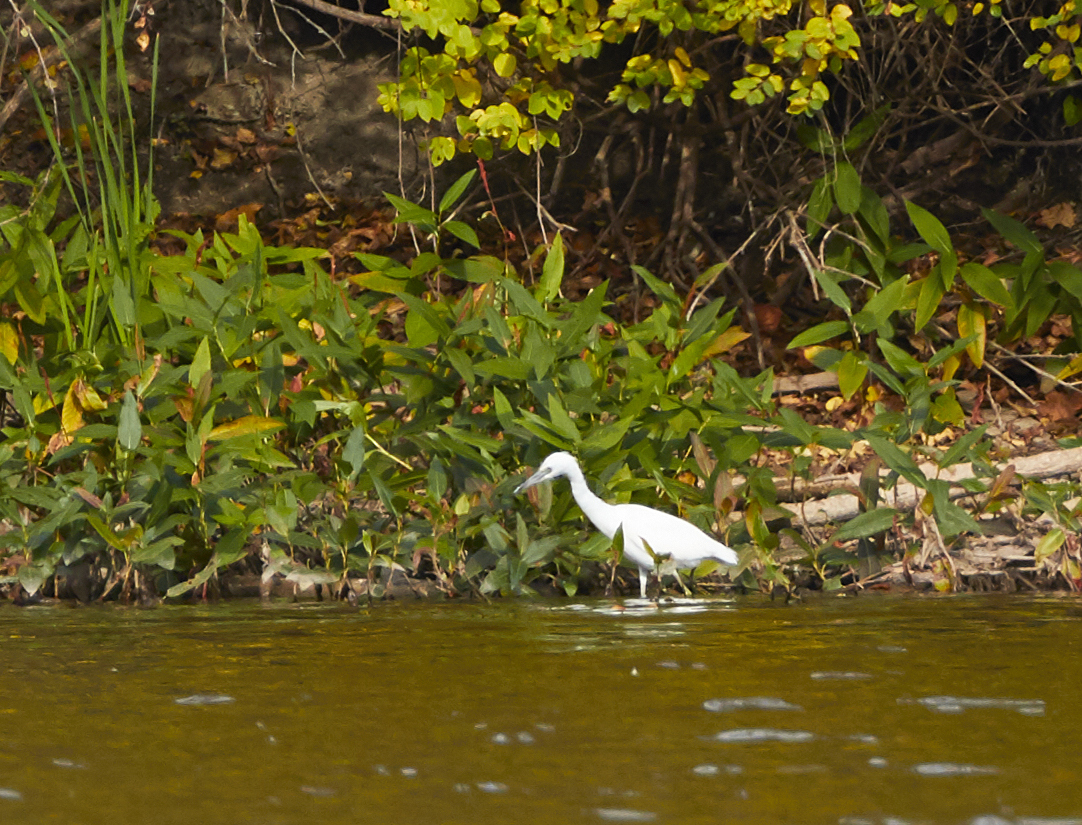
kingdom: Animalia
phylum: Chordata
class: Aves
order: Pelecaniformes
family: Ardeidae
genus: Egretta
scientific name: Egretta caerulea
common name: Little blue heron
